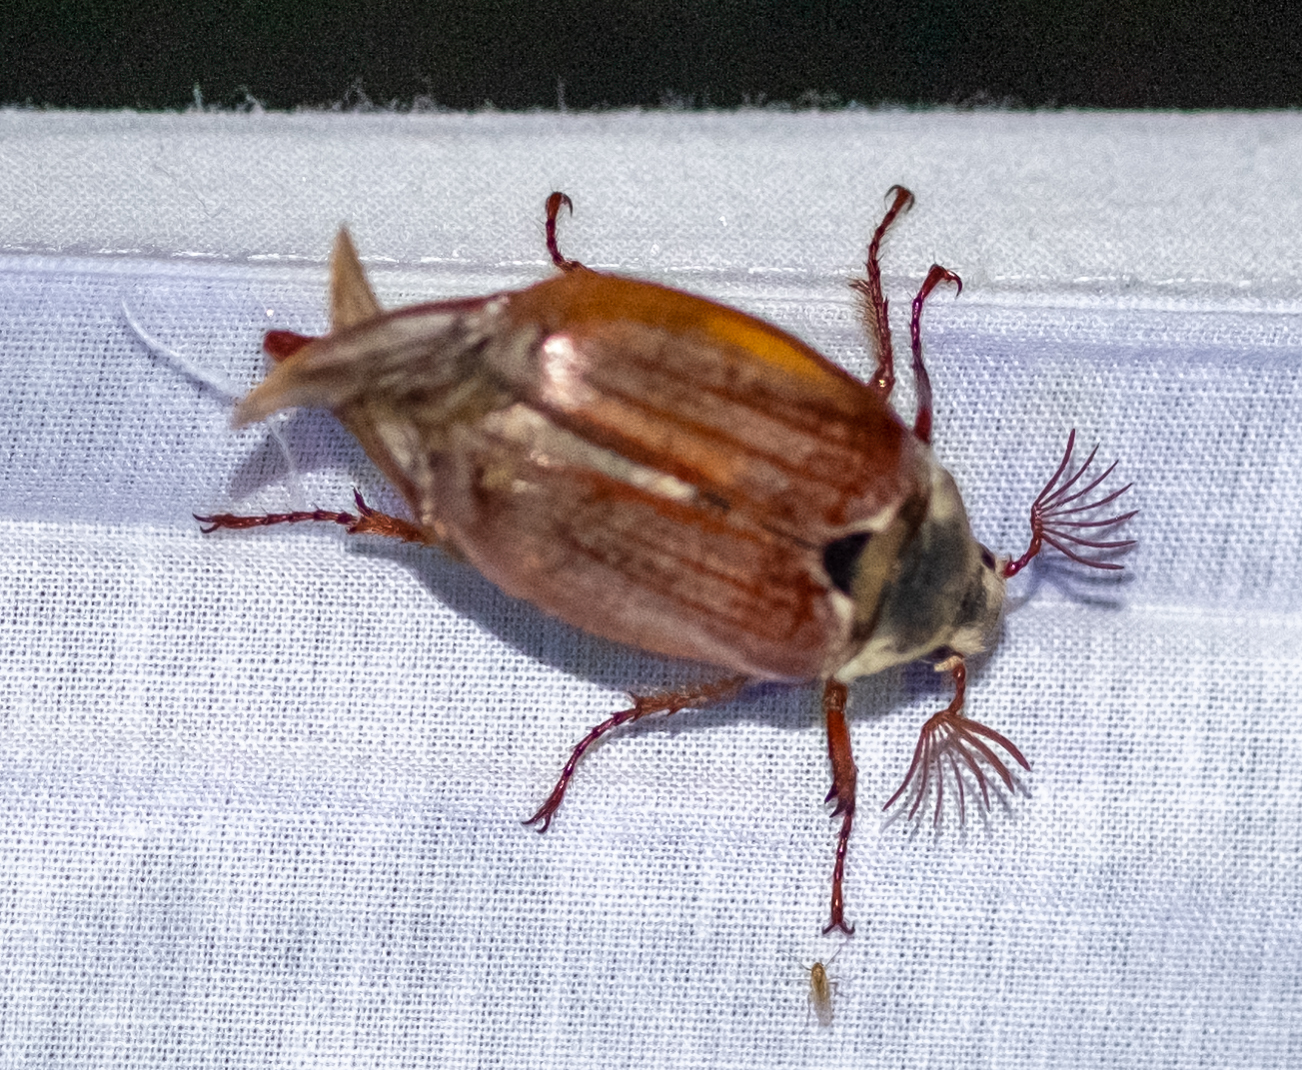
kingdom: Animalia
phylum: Arthropoda
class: Insecta
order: Coleoptera
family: Scarabaeidae
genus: Melolontha
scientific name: Melolontha melolontha
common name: Cockchafer maybeetle
